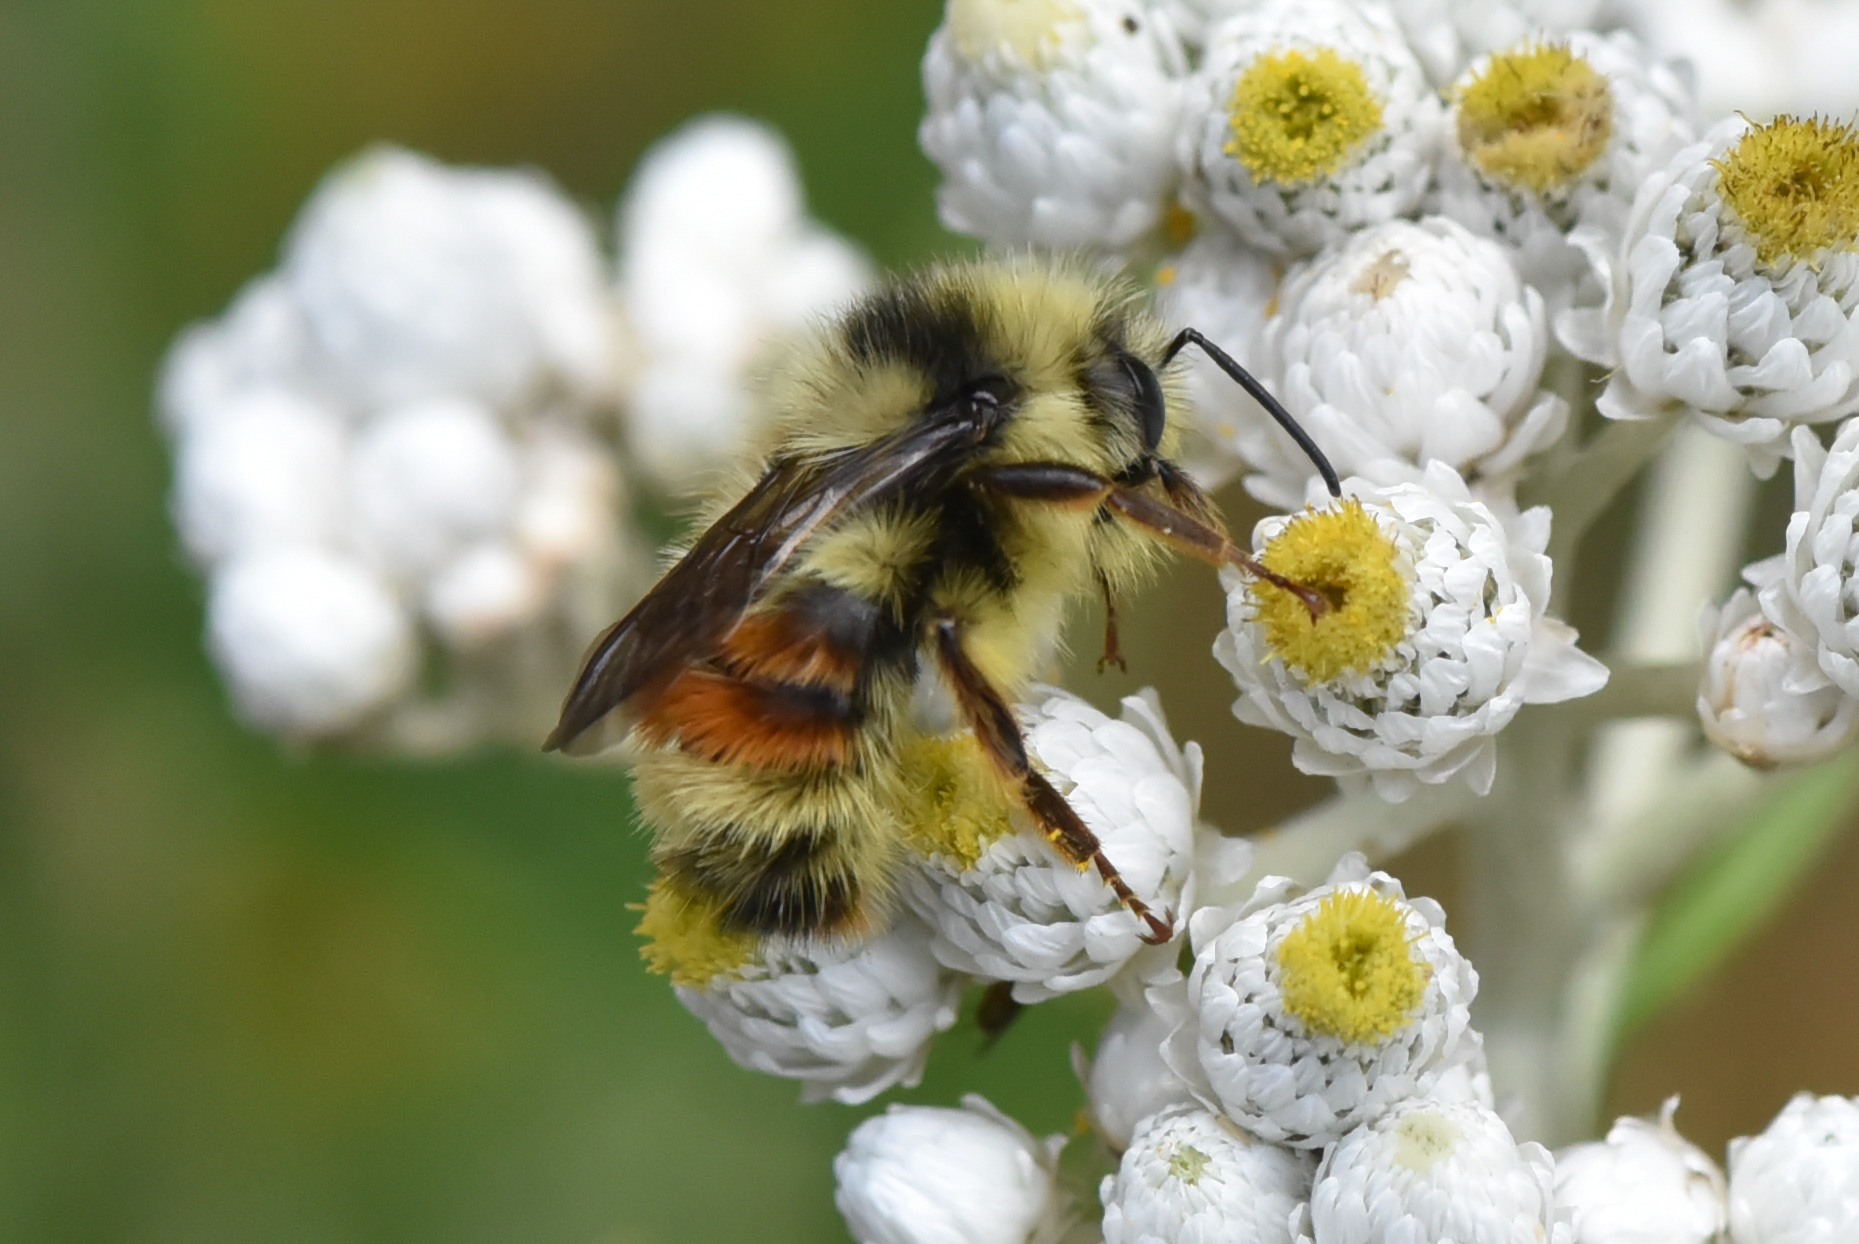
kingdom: Animalia
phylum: Arthropoda
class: Insecta
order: Hymenoptera
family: Apidae
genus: Bombus
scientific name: Bombus vancouverensis
